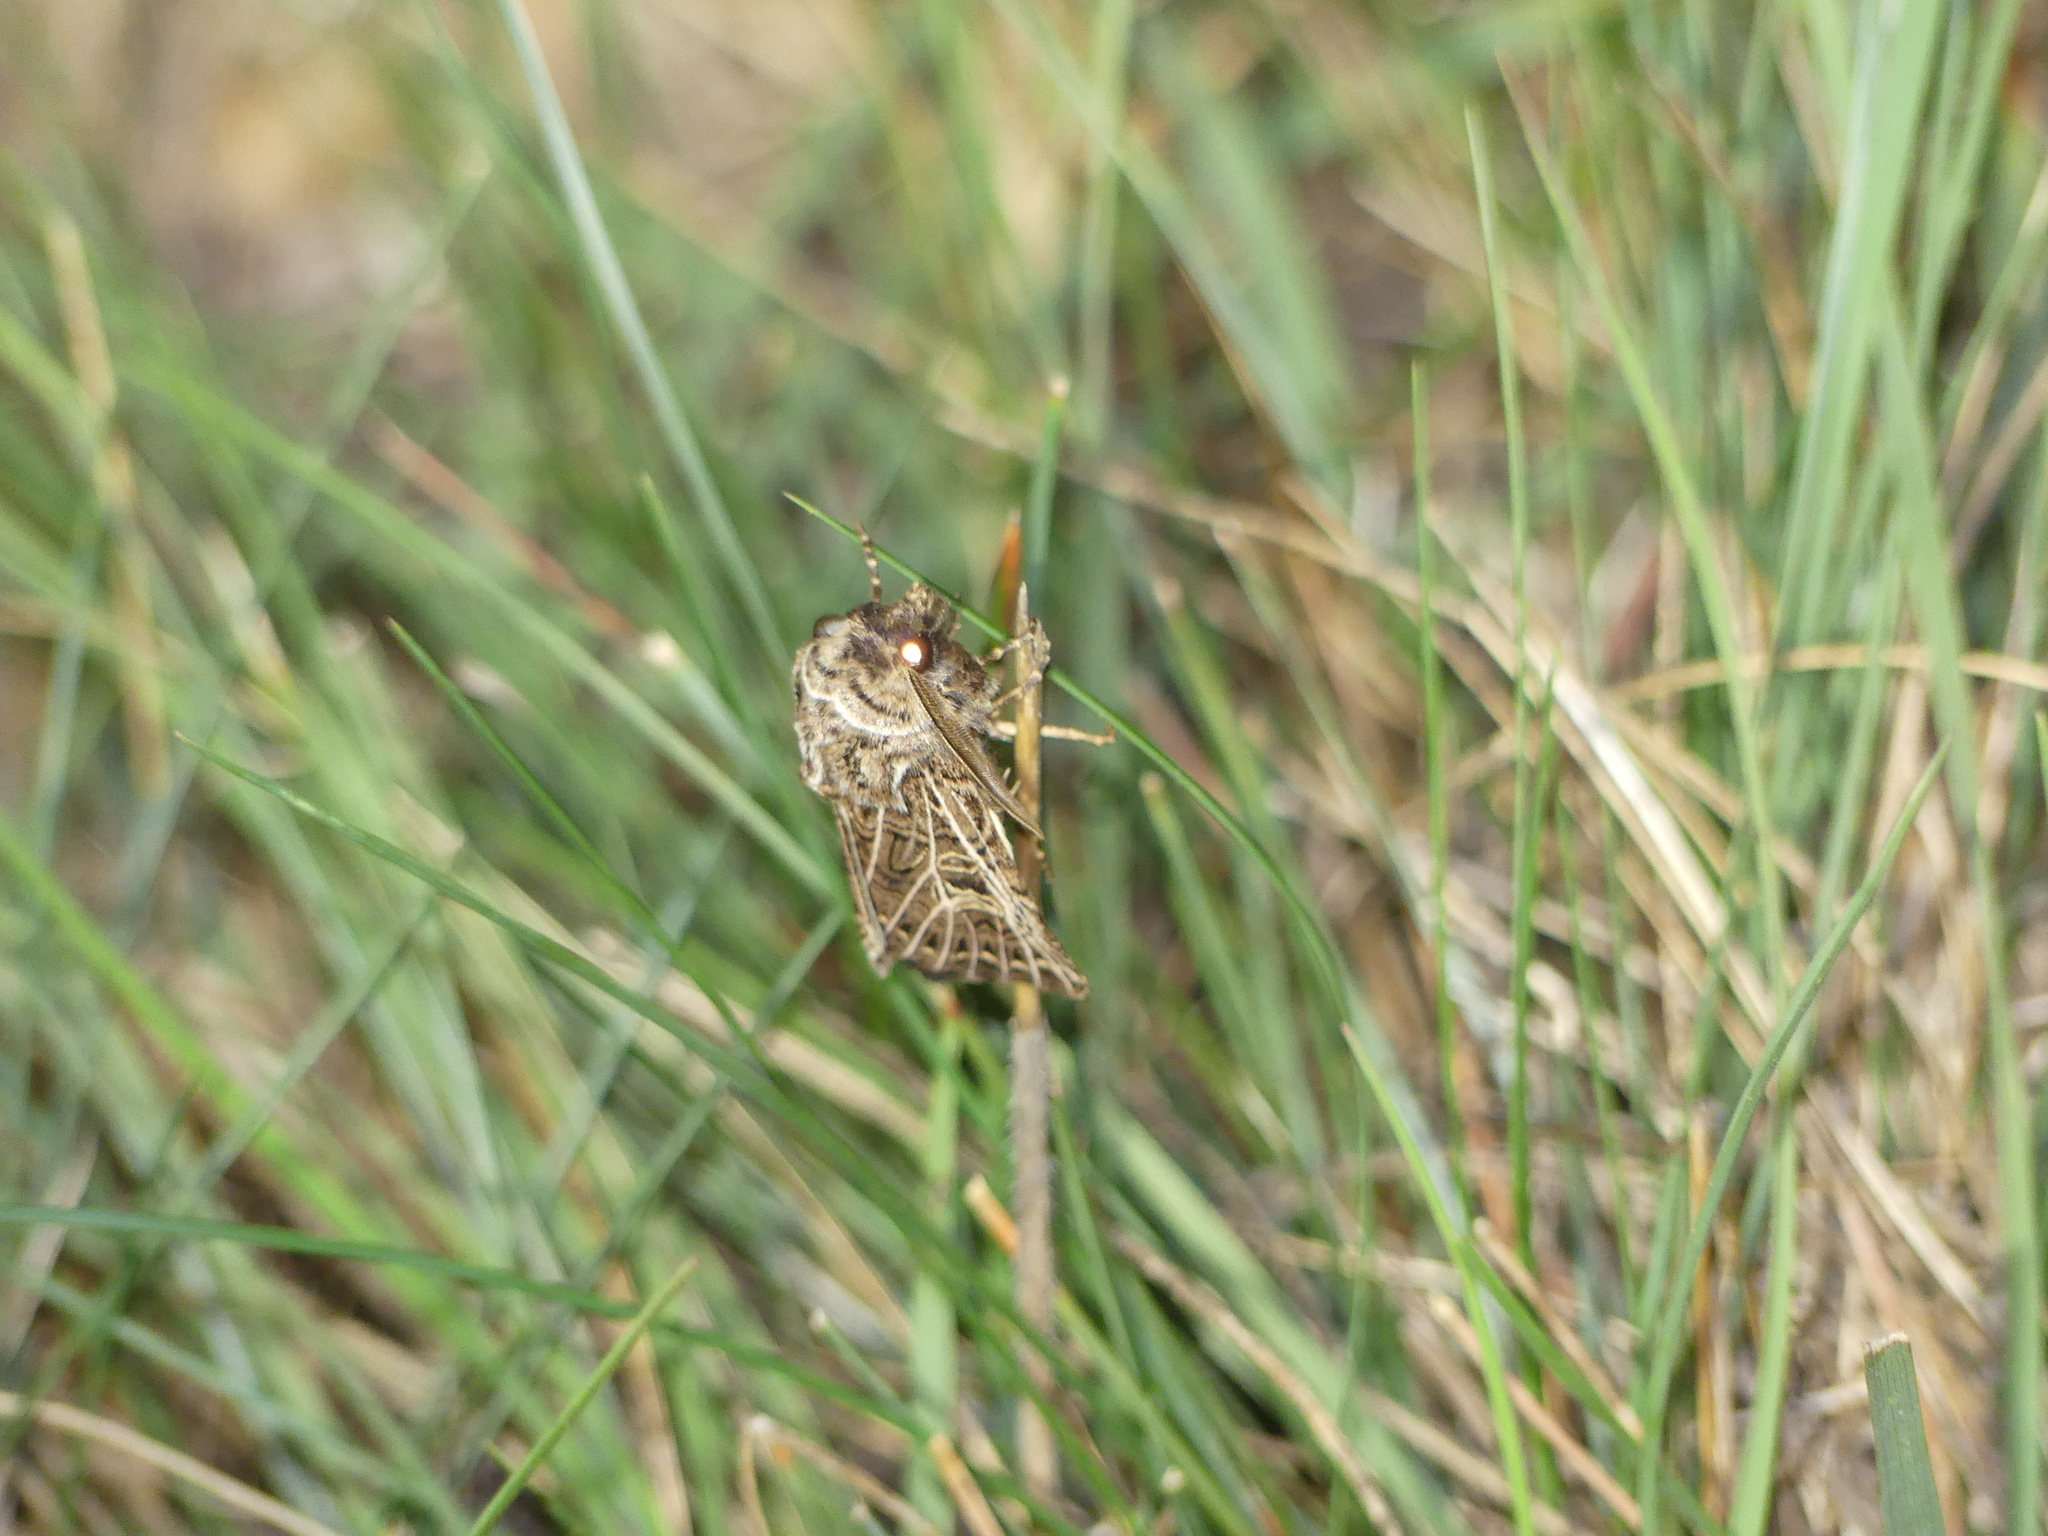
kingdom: Animalia
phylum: Arthropoda
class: Insecta
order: Lepidoptera
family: Noctuidae
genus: Tholera
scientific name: Tholera decimalis
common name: Feathered gothic
